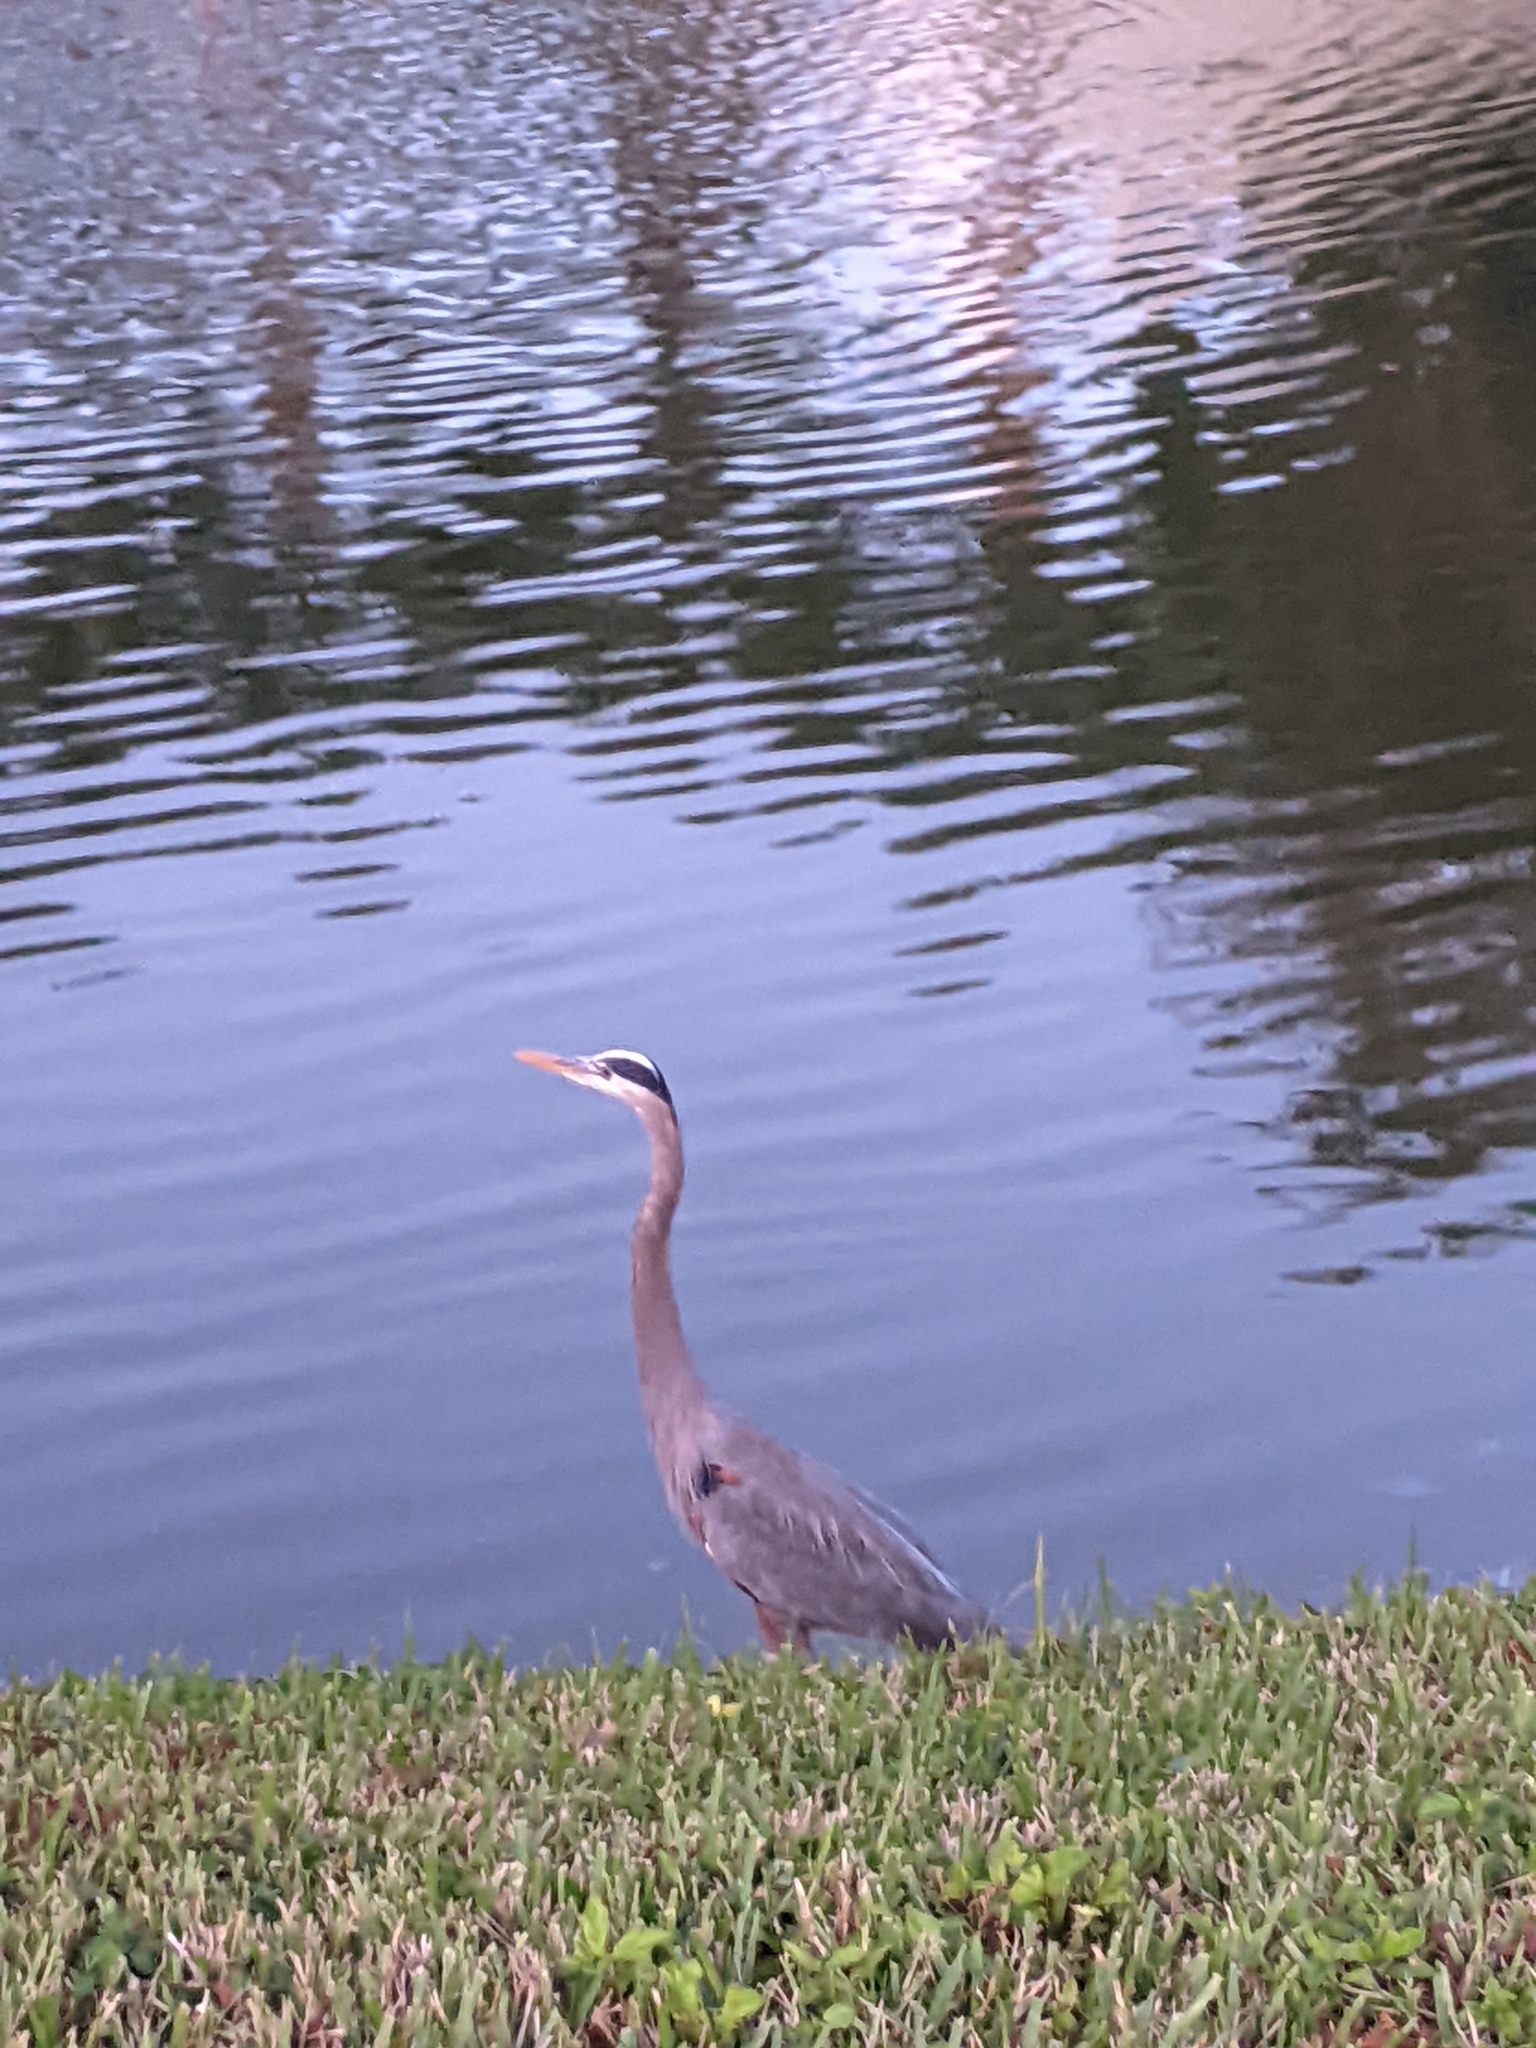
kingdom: Animalia
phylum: Chordata
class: Aves
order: Pelecaniformes
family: Ardeidae
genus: Ardea
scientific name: Ardea herodias
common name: Great blue heron
